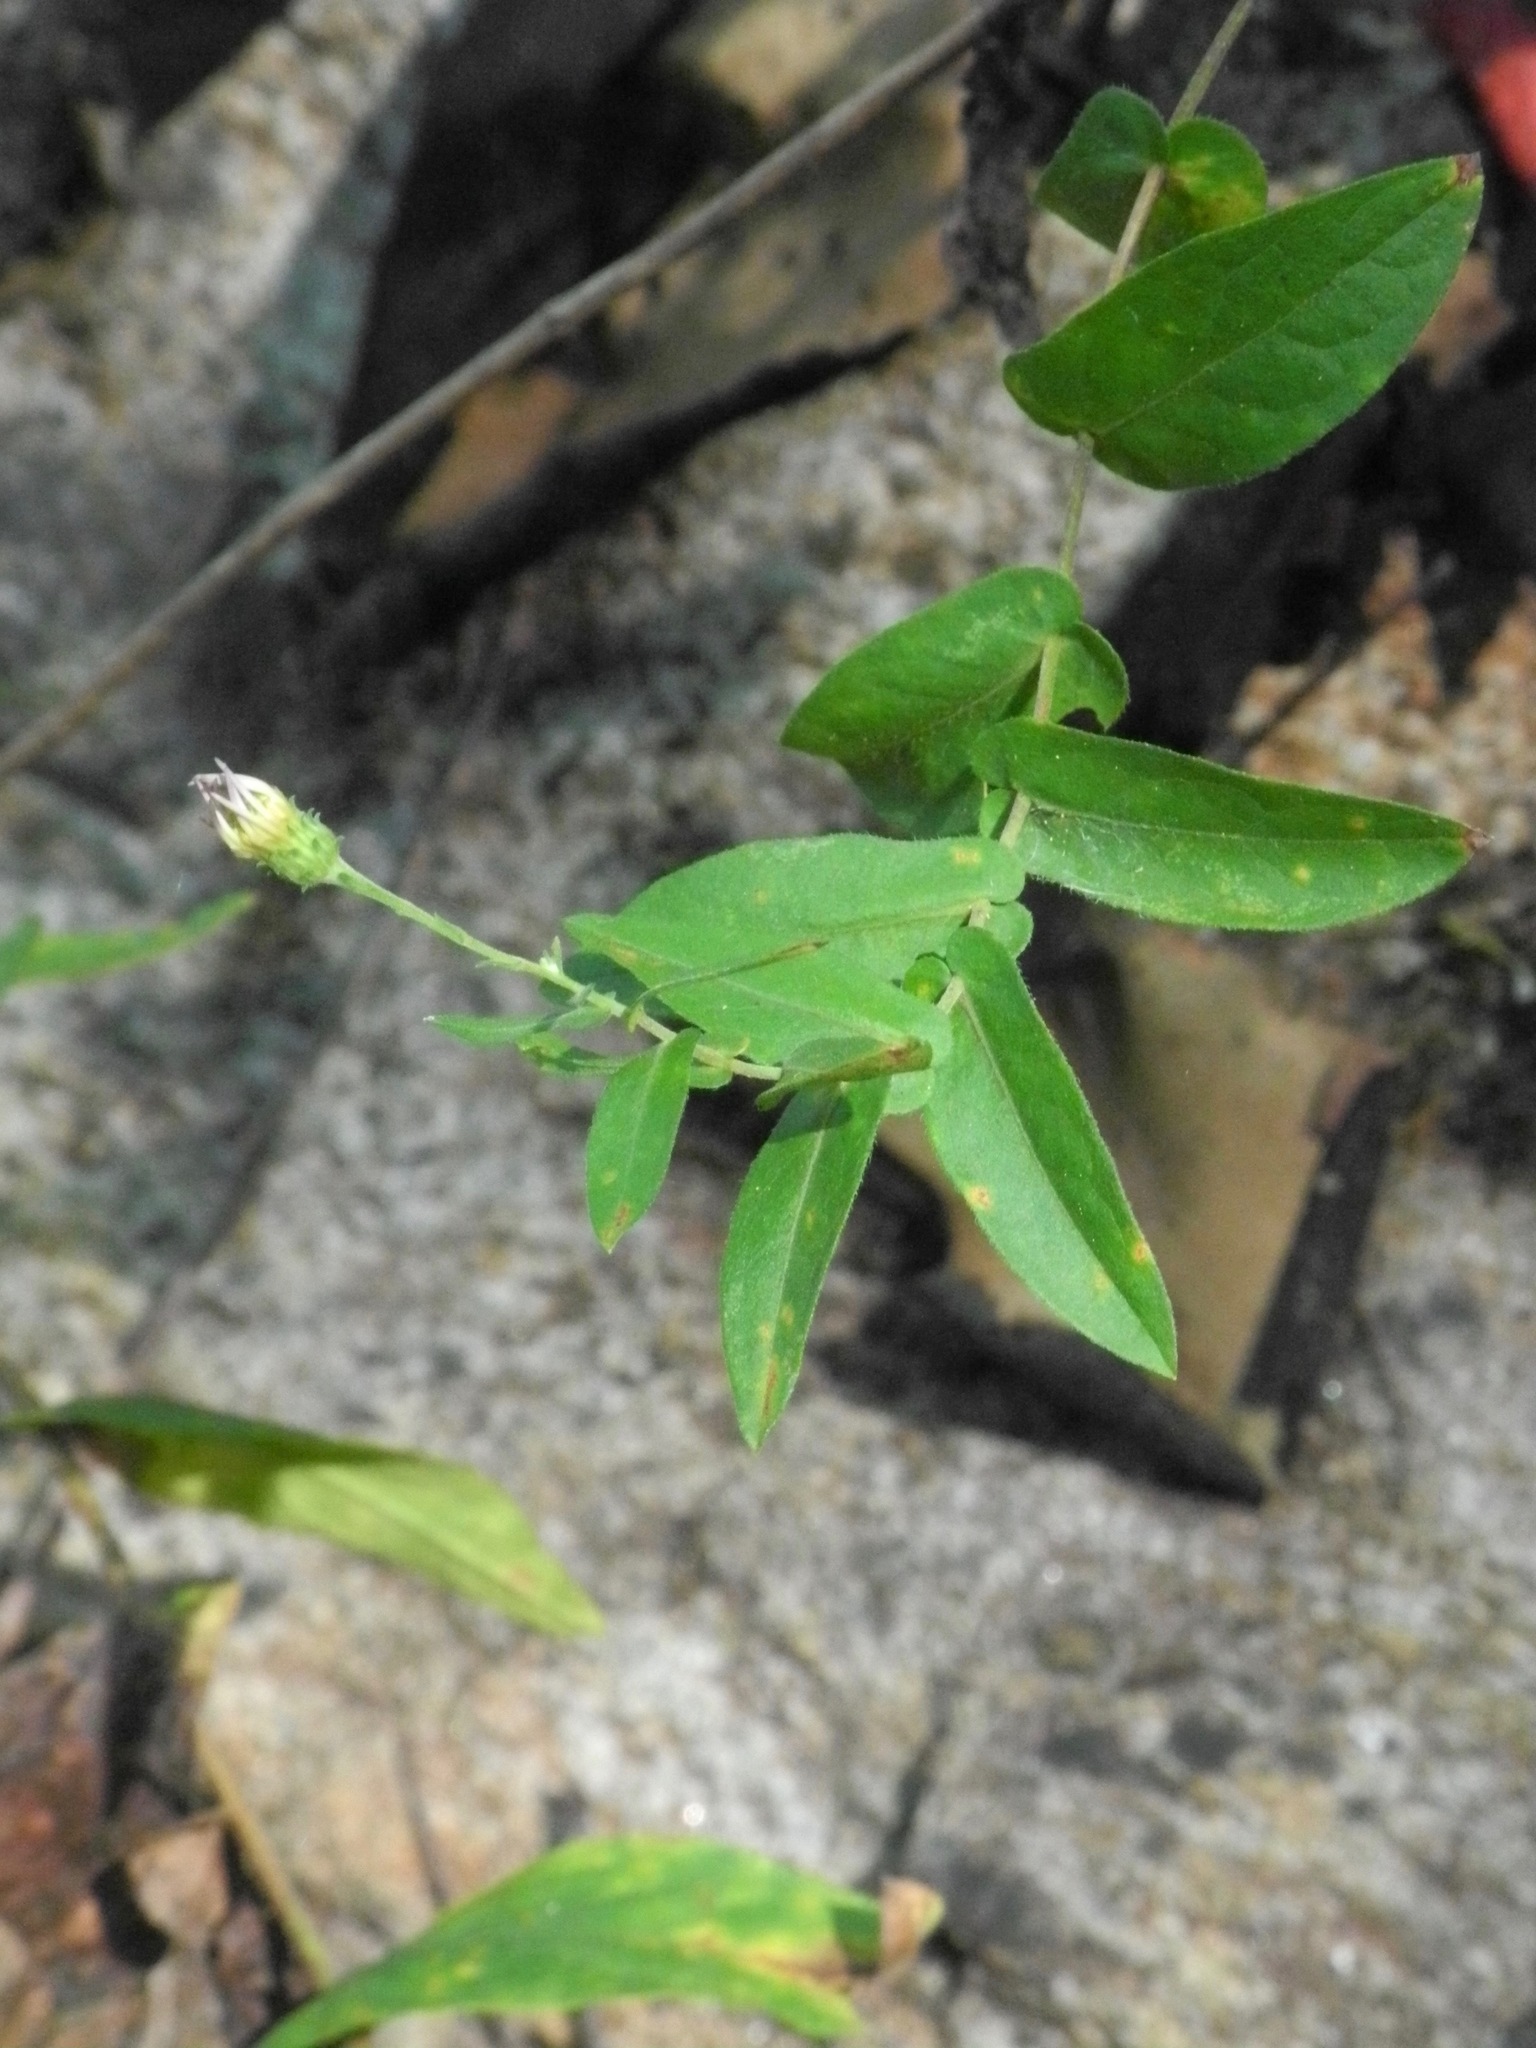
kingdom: Plantae
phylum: Tracheophyta
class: Magnoliopsida
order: Asterales
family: Asteraceae
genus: Symphyotrichum
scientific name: Symphyotrichum patens
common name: Late purple aster
